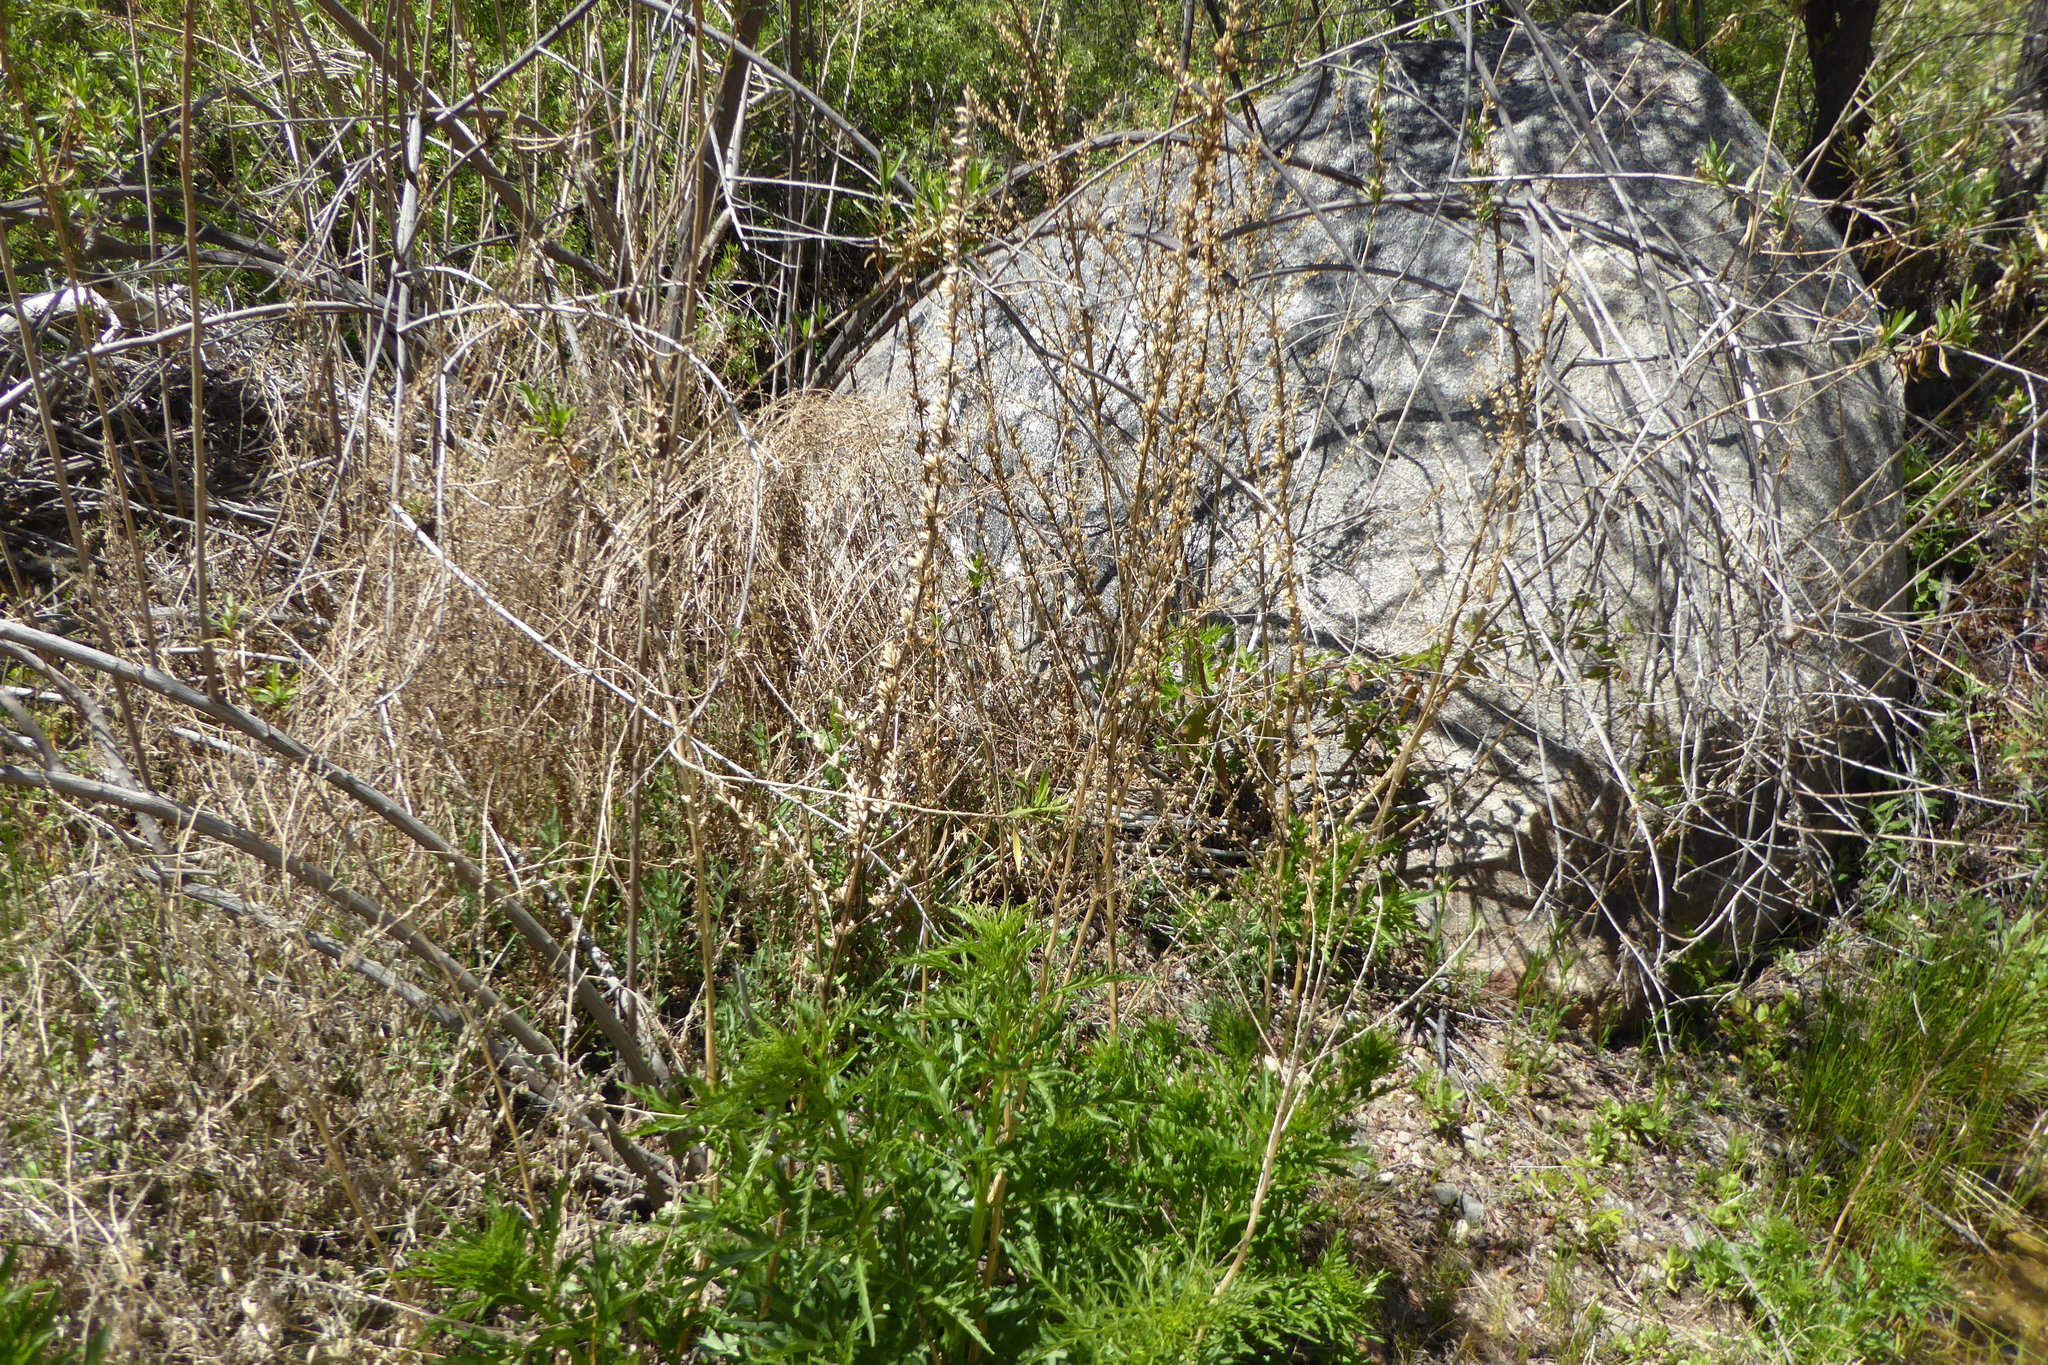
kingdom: Plantae
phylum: Tracheophyta
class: Magnoliopsida
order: Cucurbitales
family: Datiscaceae
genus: Datisca
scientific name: Datisca glomerata
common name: Durango-root
